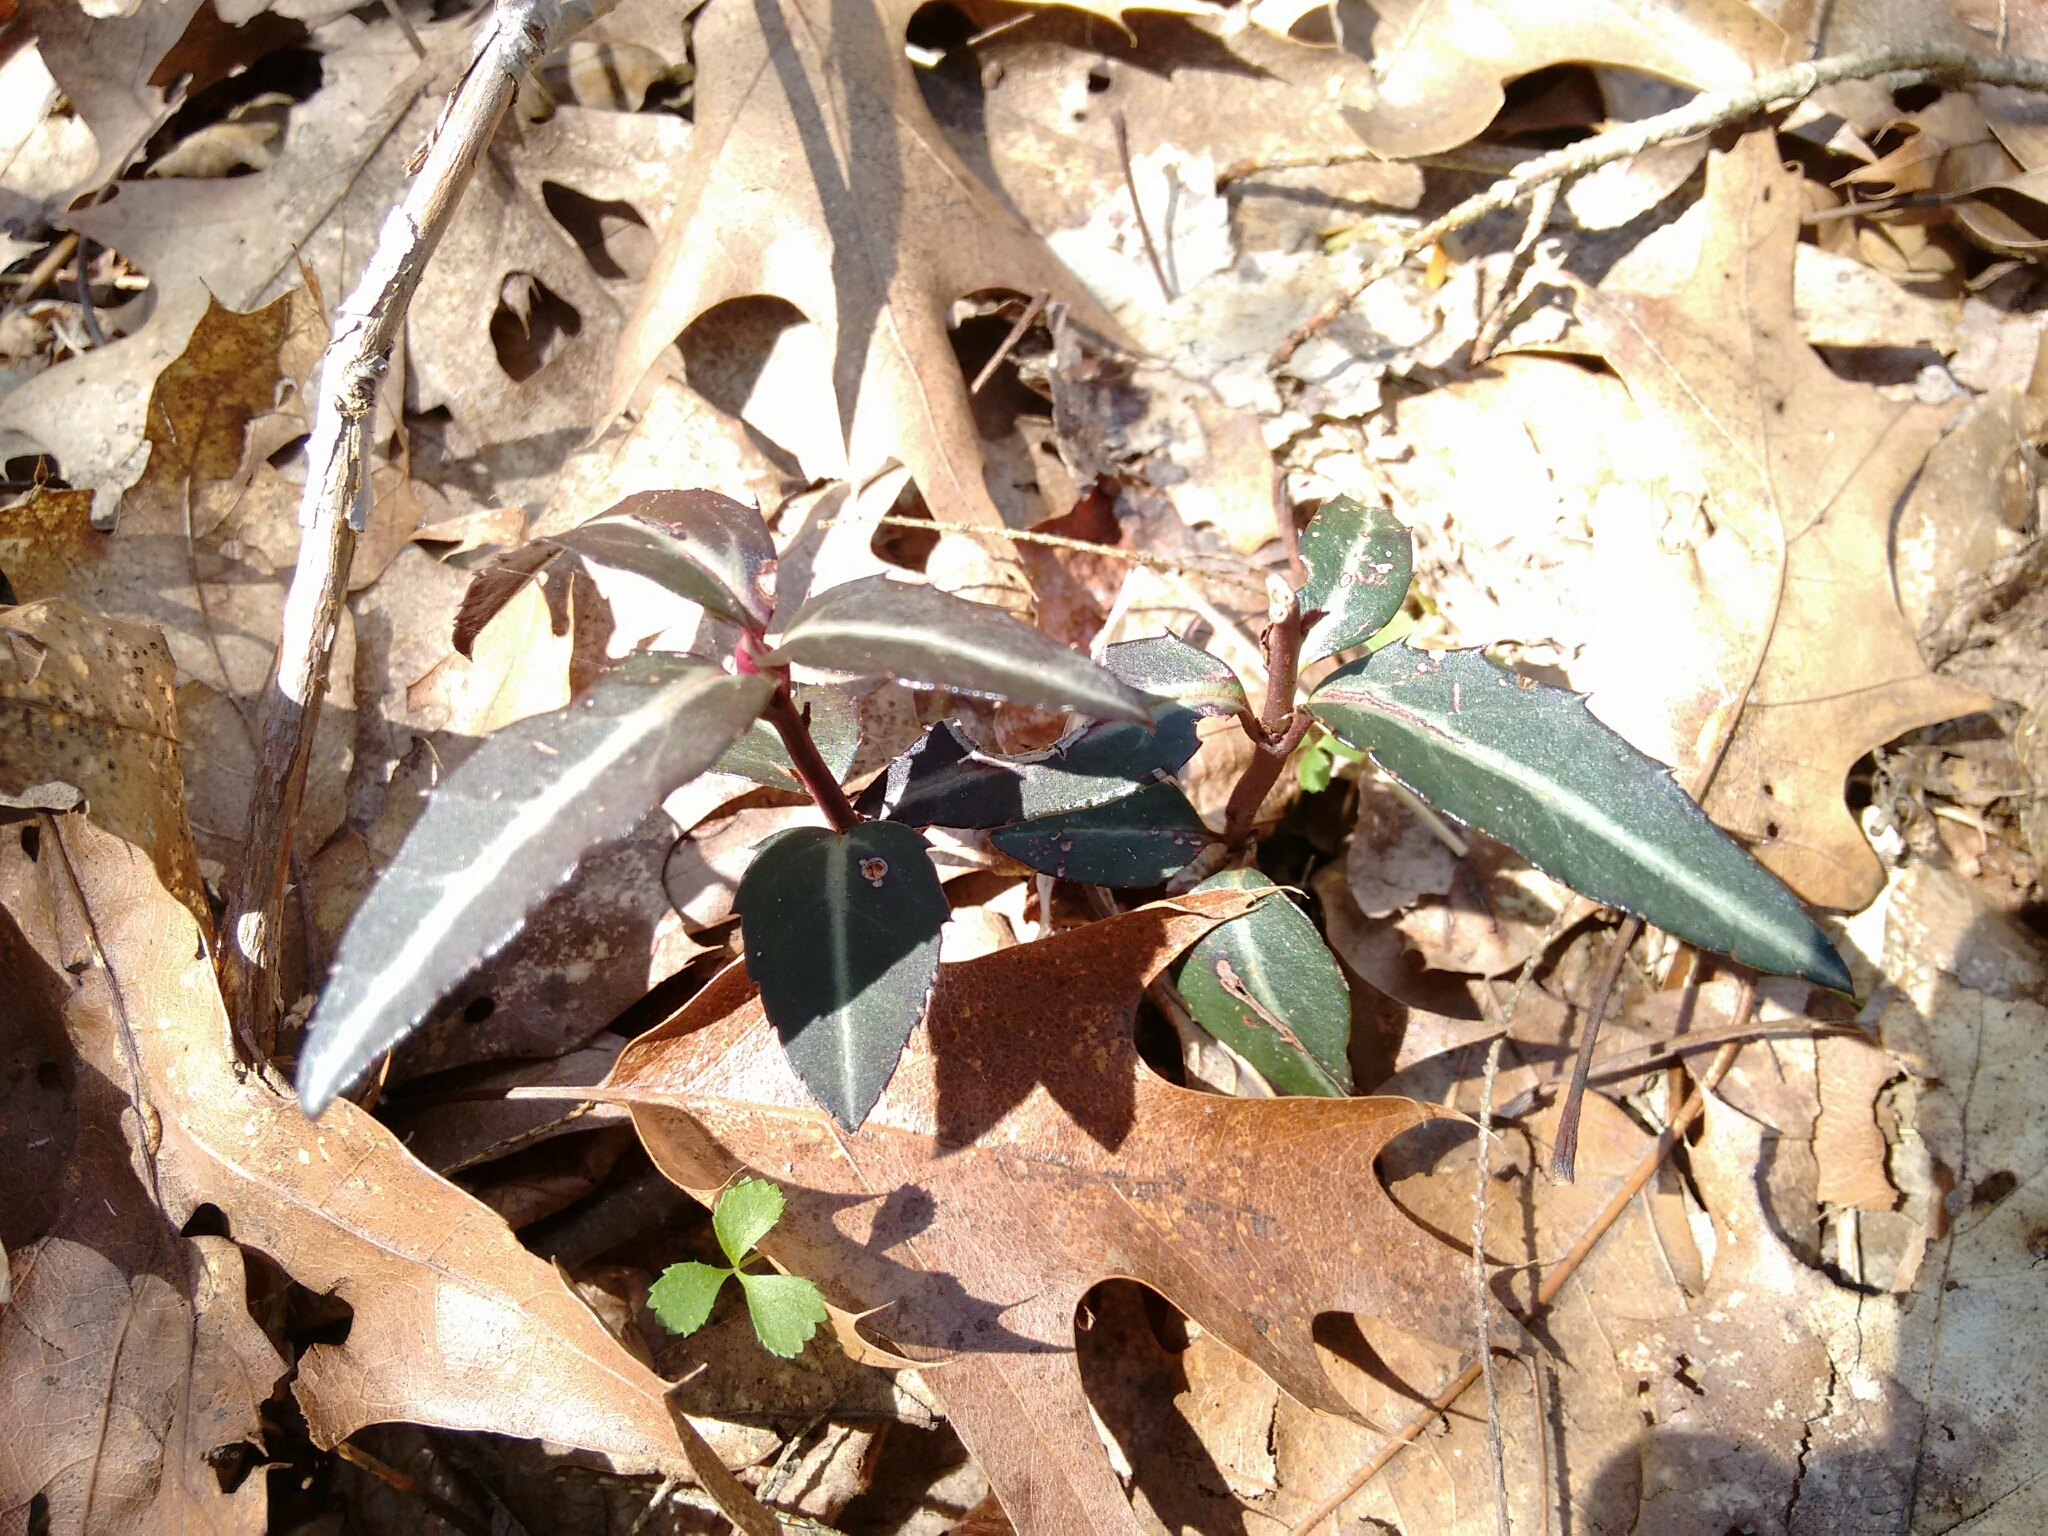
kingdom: Plantae
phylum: Tracheophyta
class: Magnoliopsida
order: Ericales
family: Ericaceae
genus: Chimaphila
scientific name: Chimaphila maculata
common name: Spotted pipsissewa
